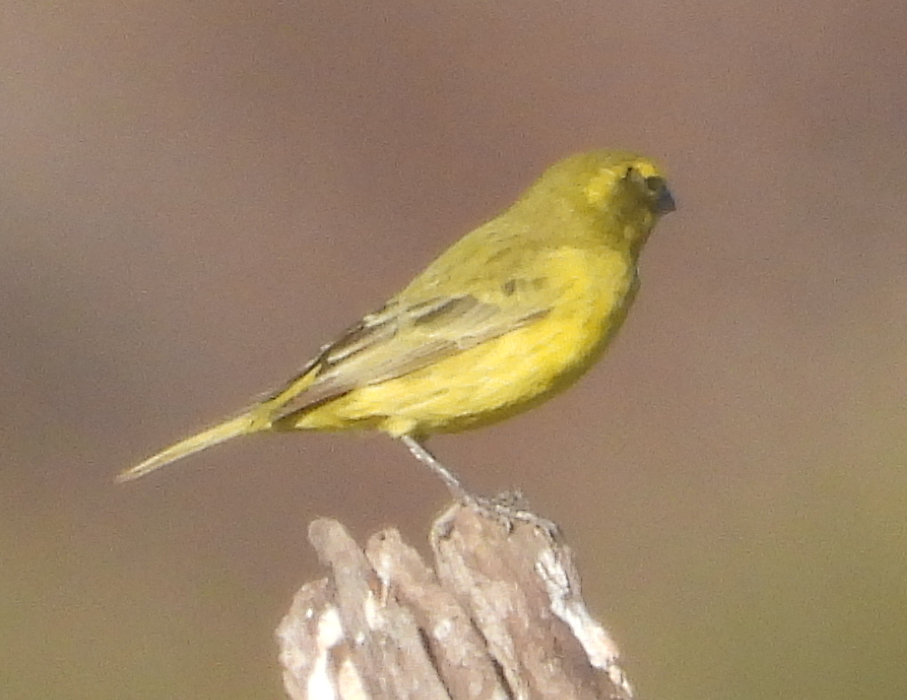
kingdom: Animalia
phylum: Chordata
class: Aves
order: Passeriformes
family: Fringillidae
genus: Crithagra
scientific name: Crithagra flaviventris
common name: Yellow canary
